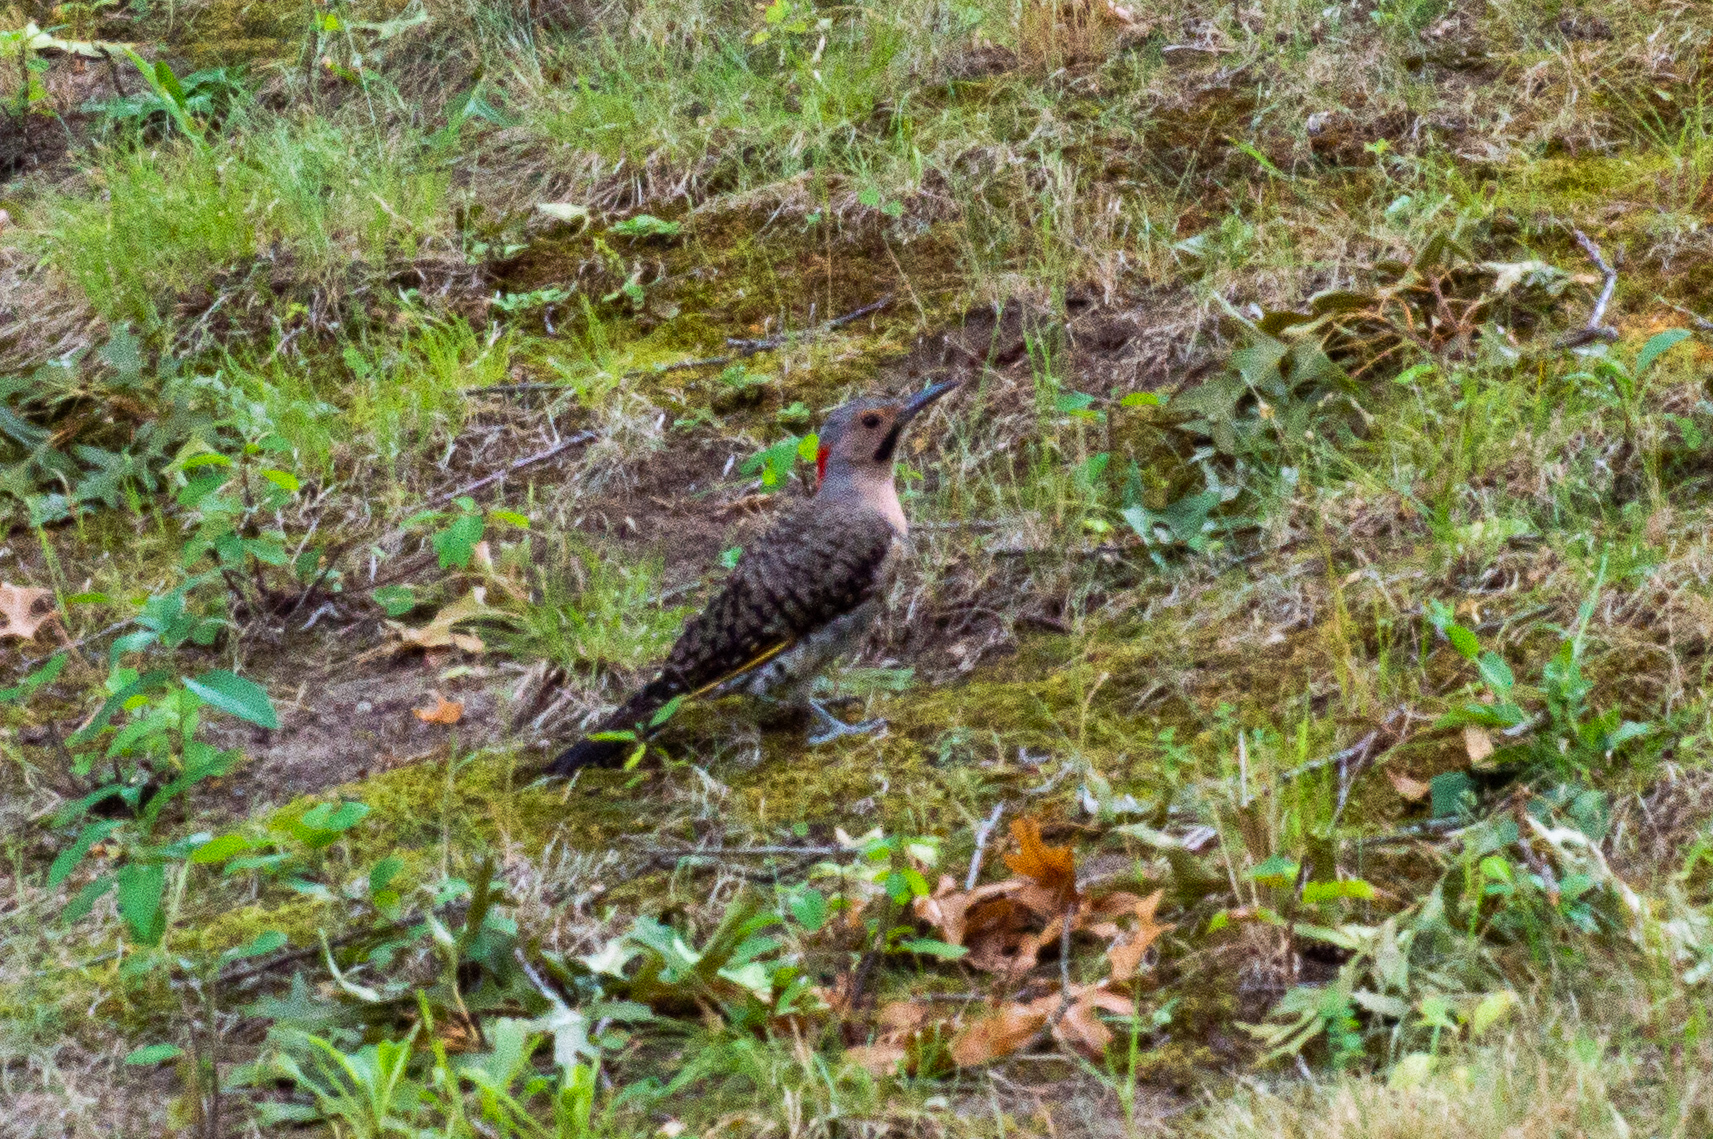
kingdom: Animalia
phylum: Chordata
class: Aves
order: Piciformes
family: Picidae
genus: Colaptes
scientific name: Colaptes auratus
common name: Northern flicker
